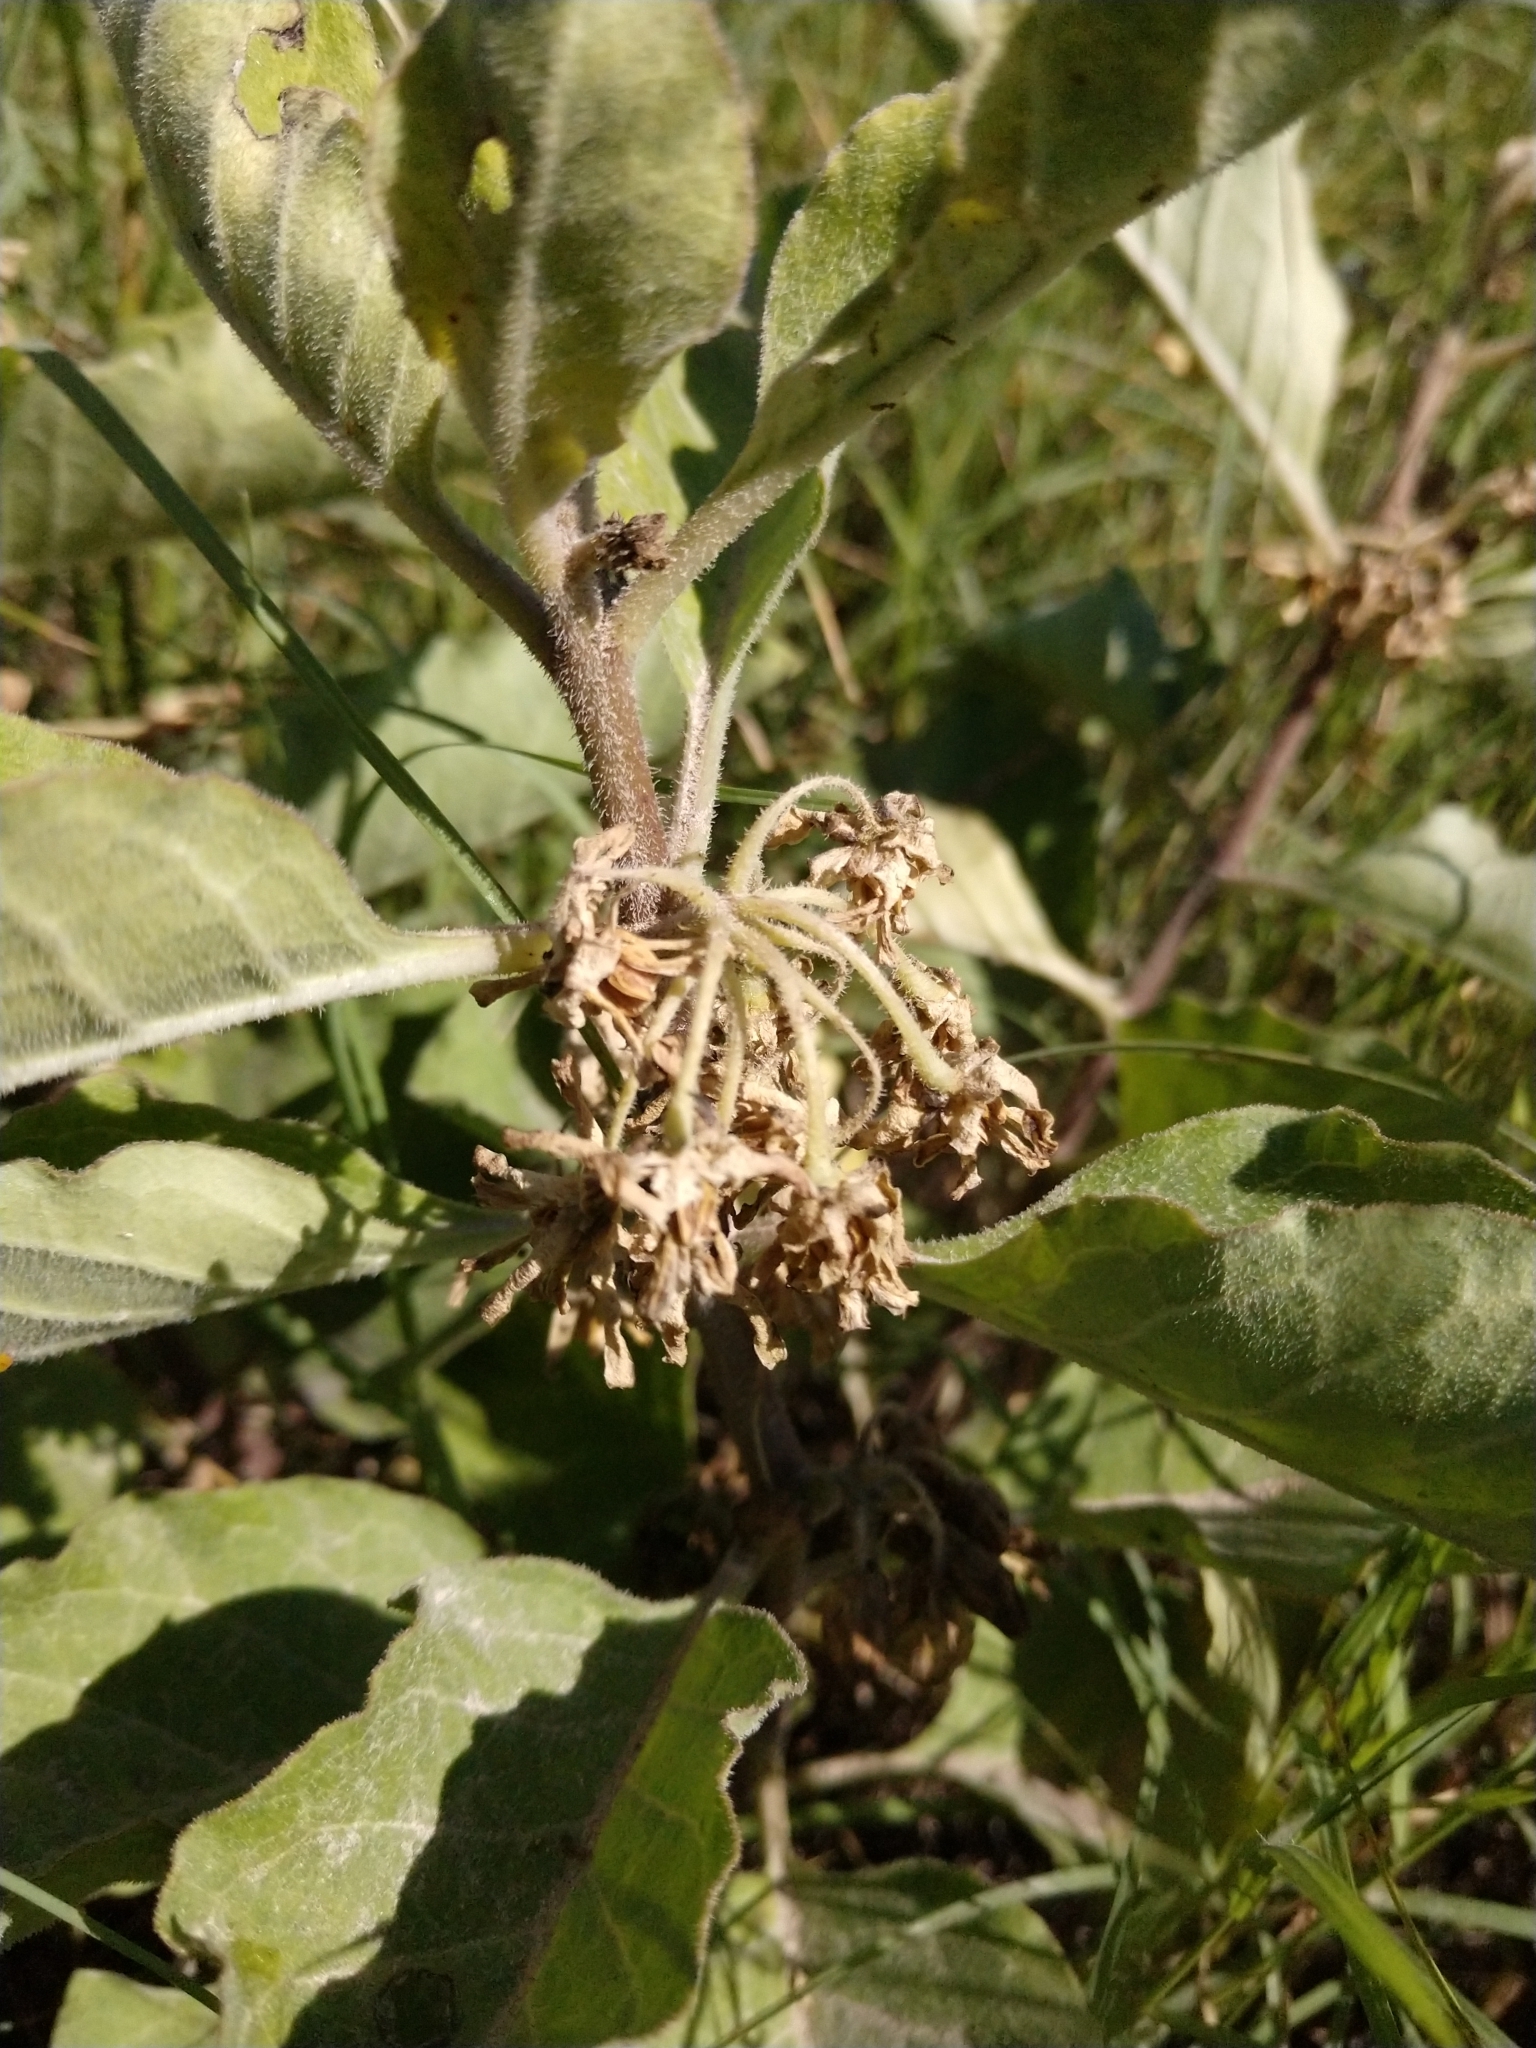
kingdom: Plantae
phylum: Tracheophyta
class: Magnoliopsida
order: Gentianales
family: Apocynaceae
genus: Asclepias
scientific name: Asclepias oenotheroides
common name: Zizotes milkweed
